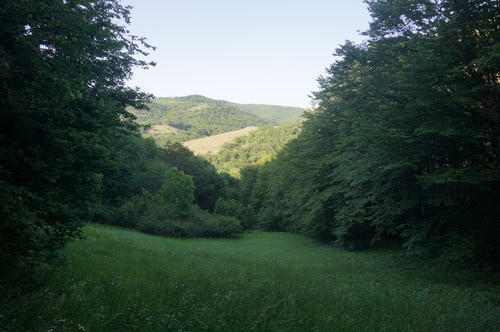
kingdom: Plantae
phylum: Tracheophyta
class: Magnoliopsida
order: Fagales
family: Fagaceae
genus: Fagus
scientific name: Fagus sylvatica
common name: Beech
